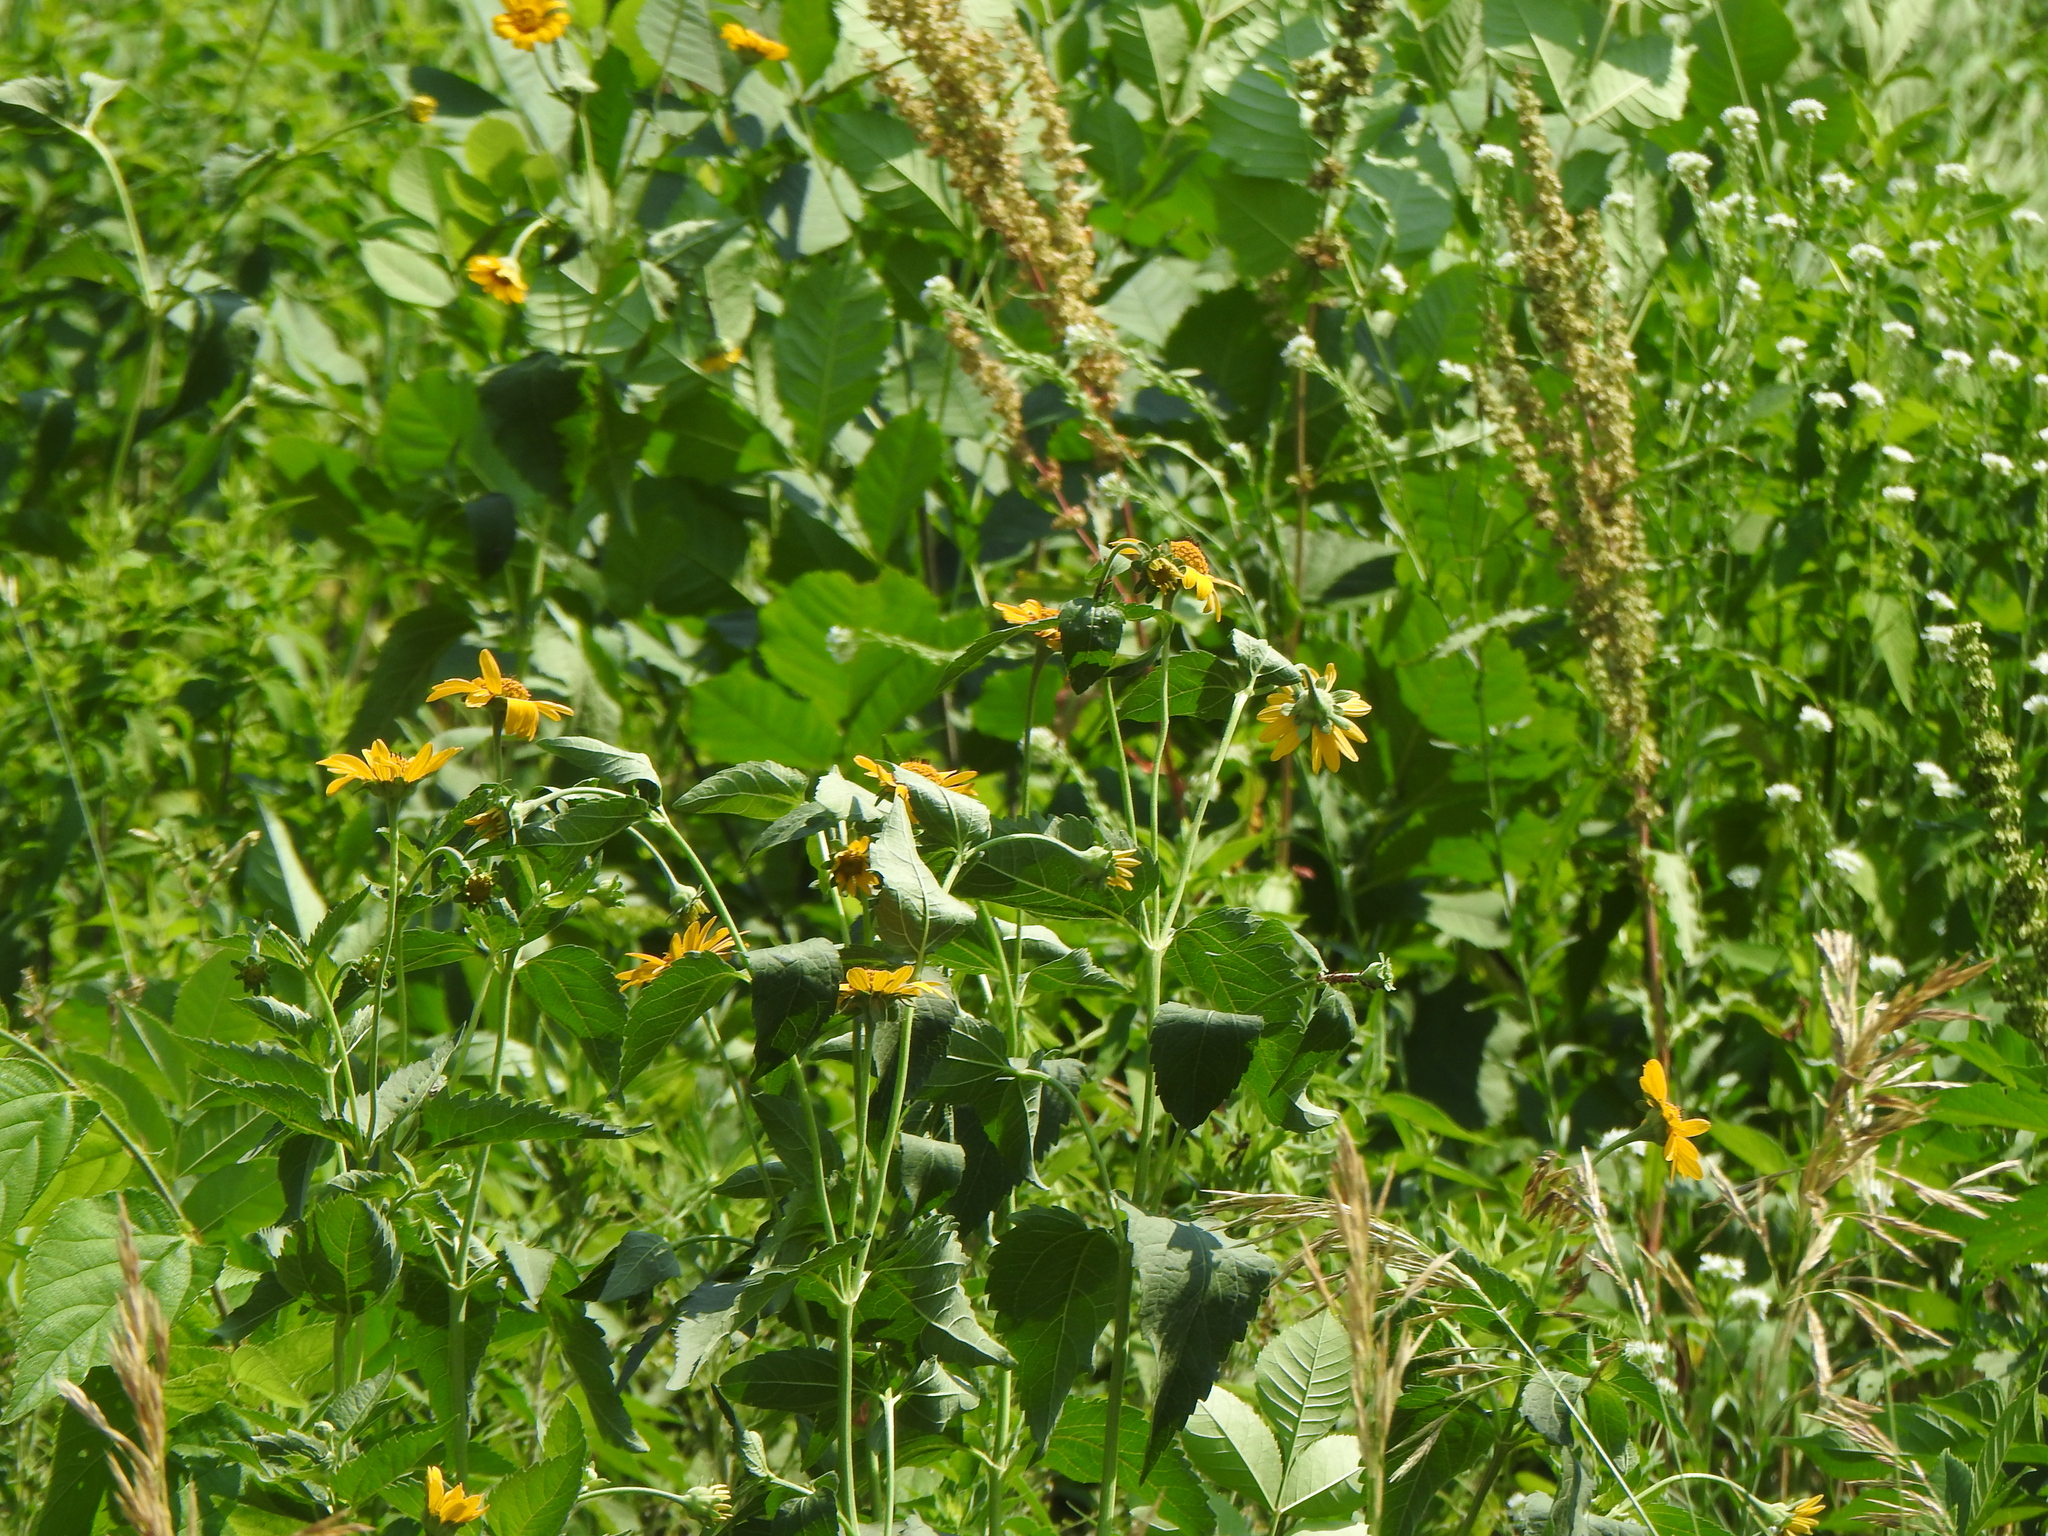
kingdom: Plantae
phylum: Tracheophyta
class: Magnoliopsida
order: Asterales
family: Asteraceae
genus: Heliopsis
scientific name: Heliopsis helianthoides
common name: False sunflower
